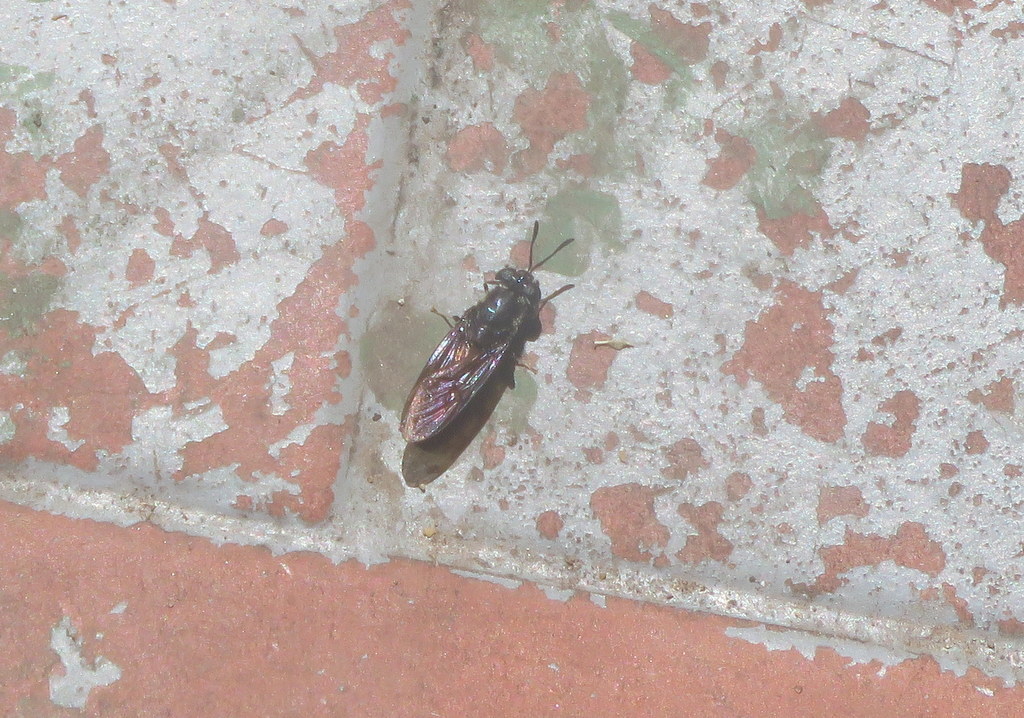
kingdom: Animalia
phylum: Arthropoda
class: Insecta
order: Diptera
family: Stratiomyidae
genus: Hermetia
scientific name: Hermetia illucens
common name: Black soldier fly
